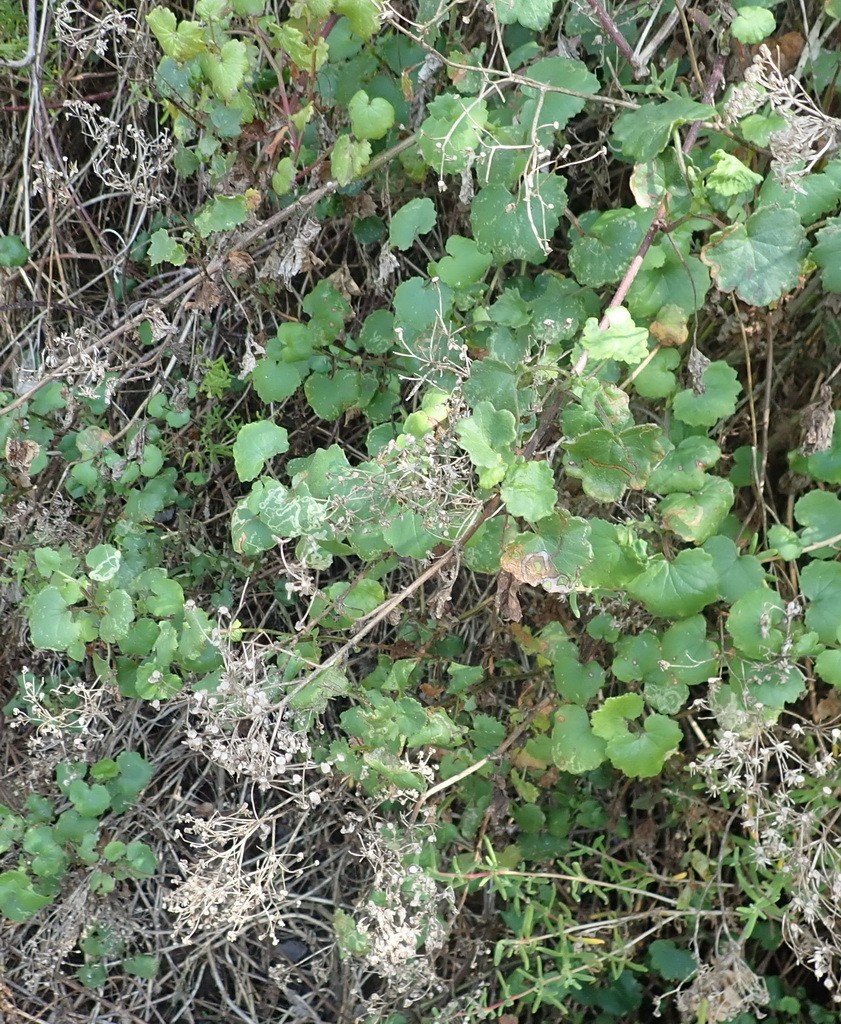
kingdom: Plantae
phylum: Tracheophyta
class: Magnoliopsida
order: Asterales
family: Asteraceae
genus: Cineraria
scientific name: Cineraria geifolia
